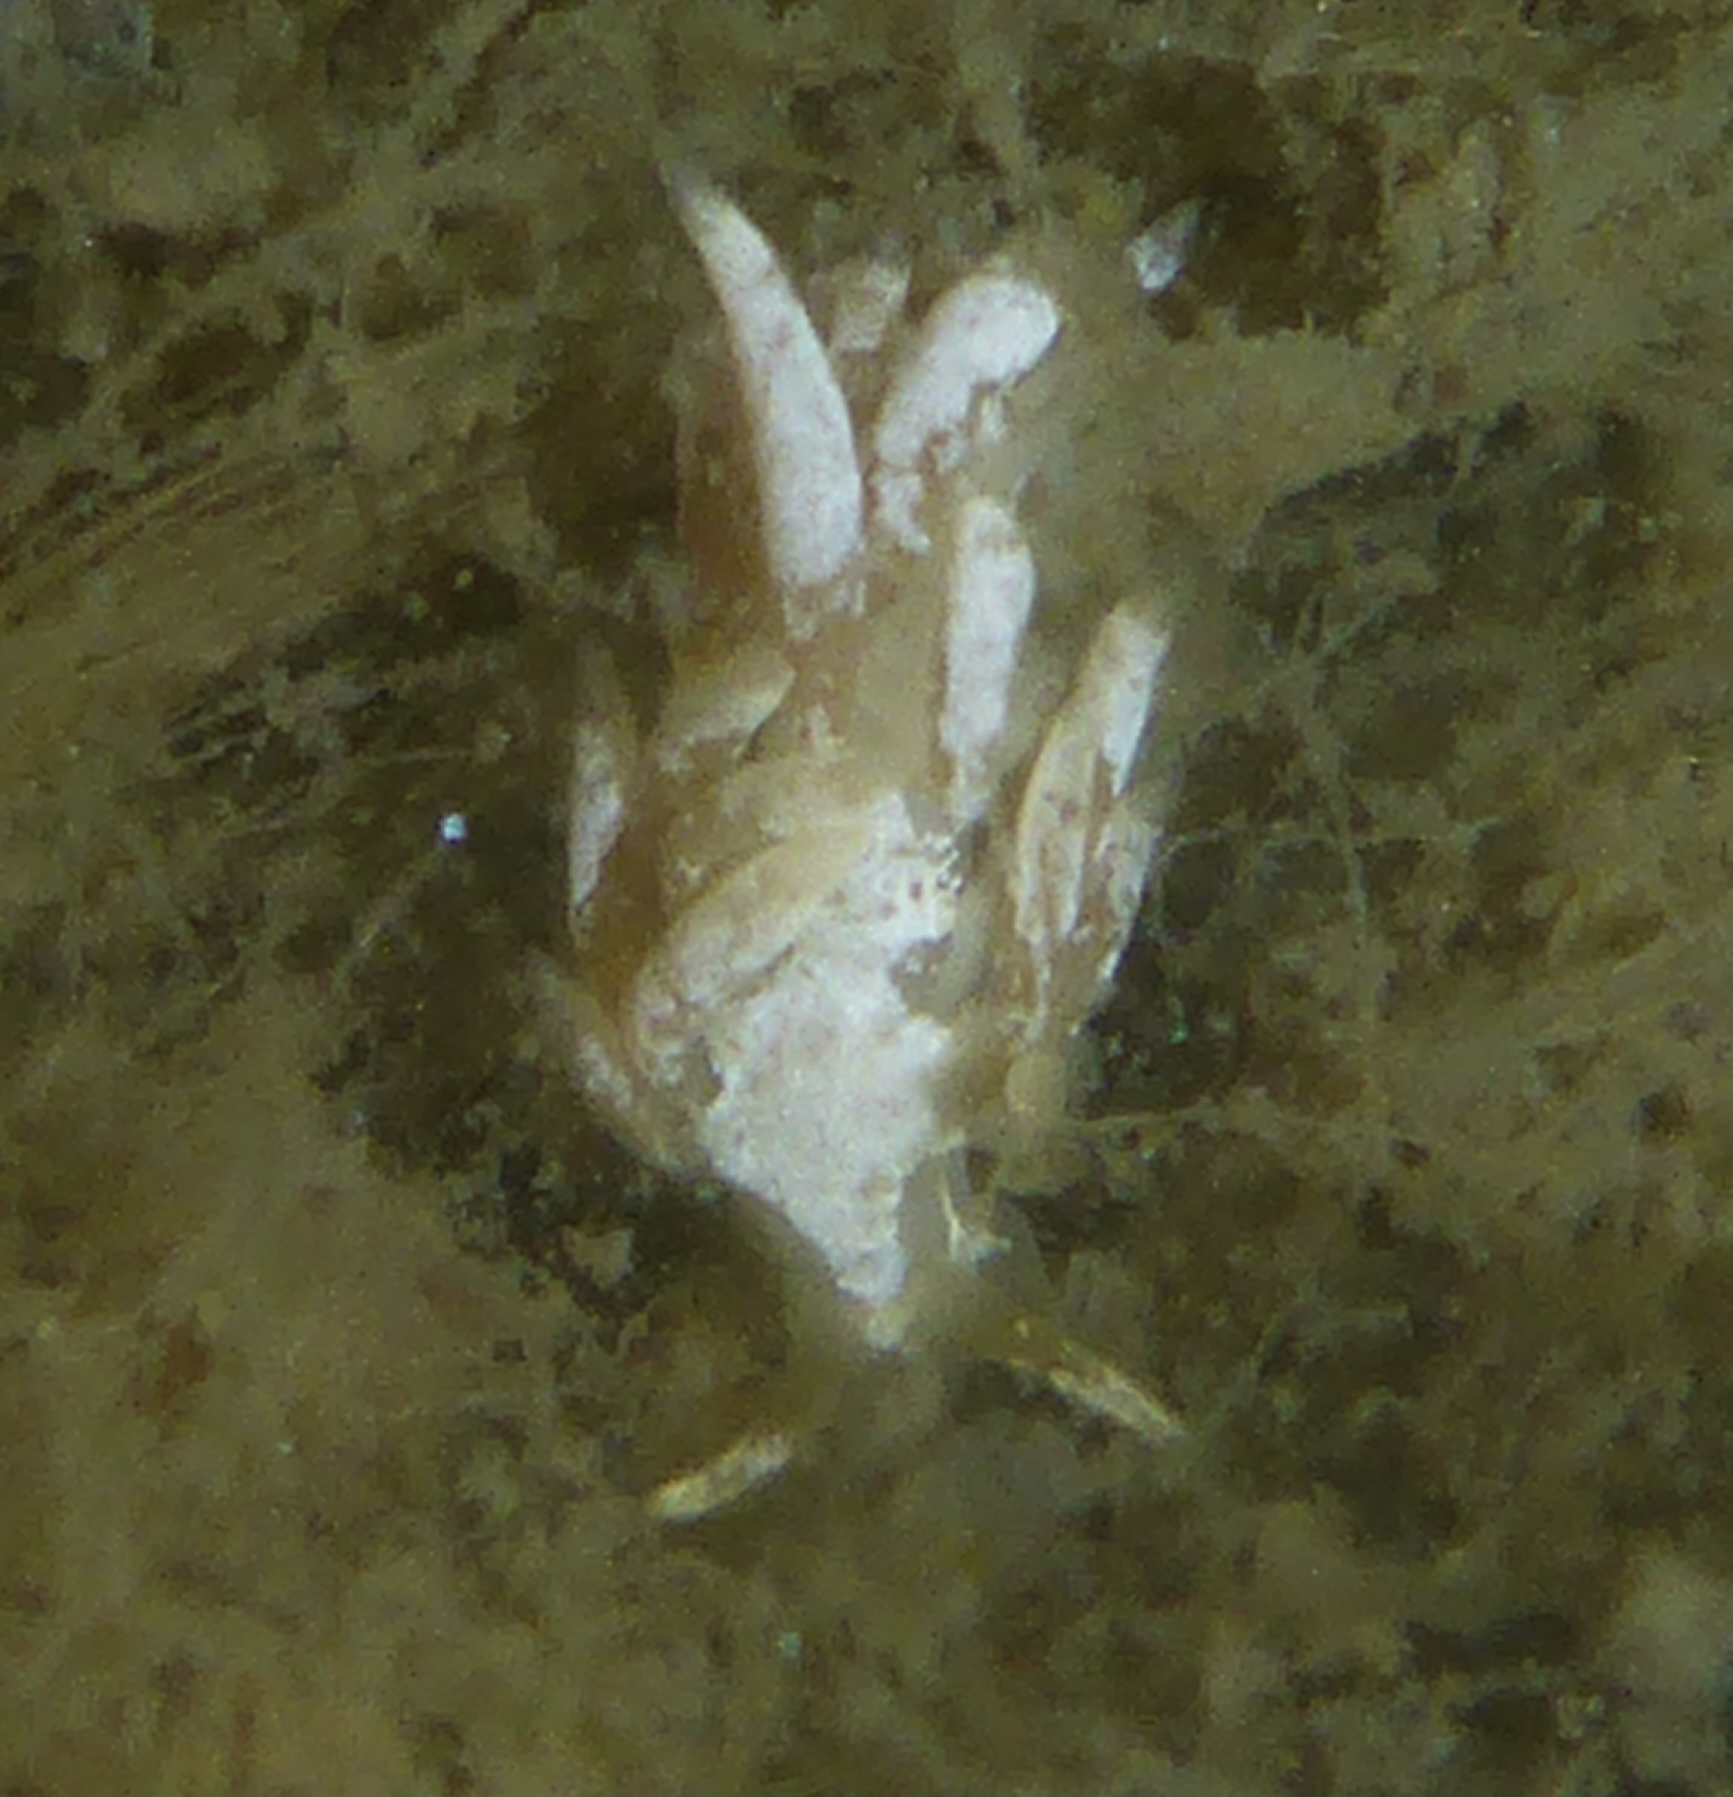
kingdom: Animalia
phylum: Mollusca
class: Gastropoda
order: Nudibranchia
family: Trinchesiidae
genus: Trinchesia
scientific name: Trinchesia albocrusta
